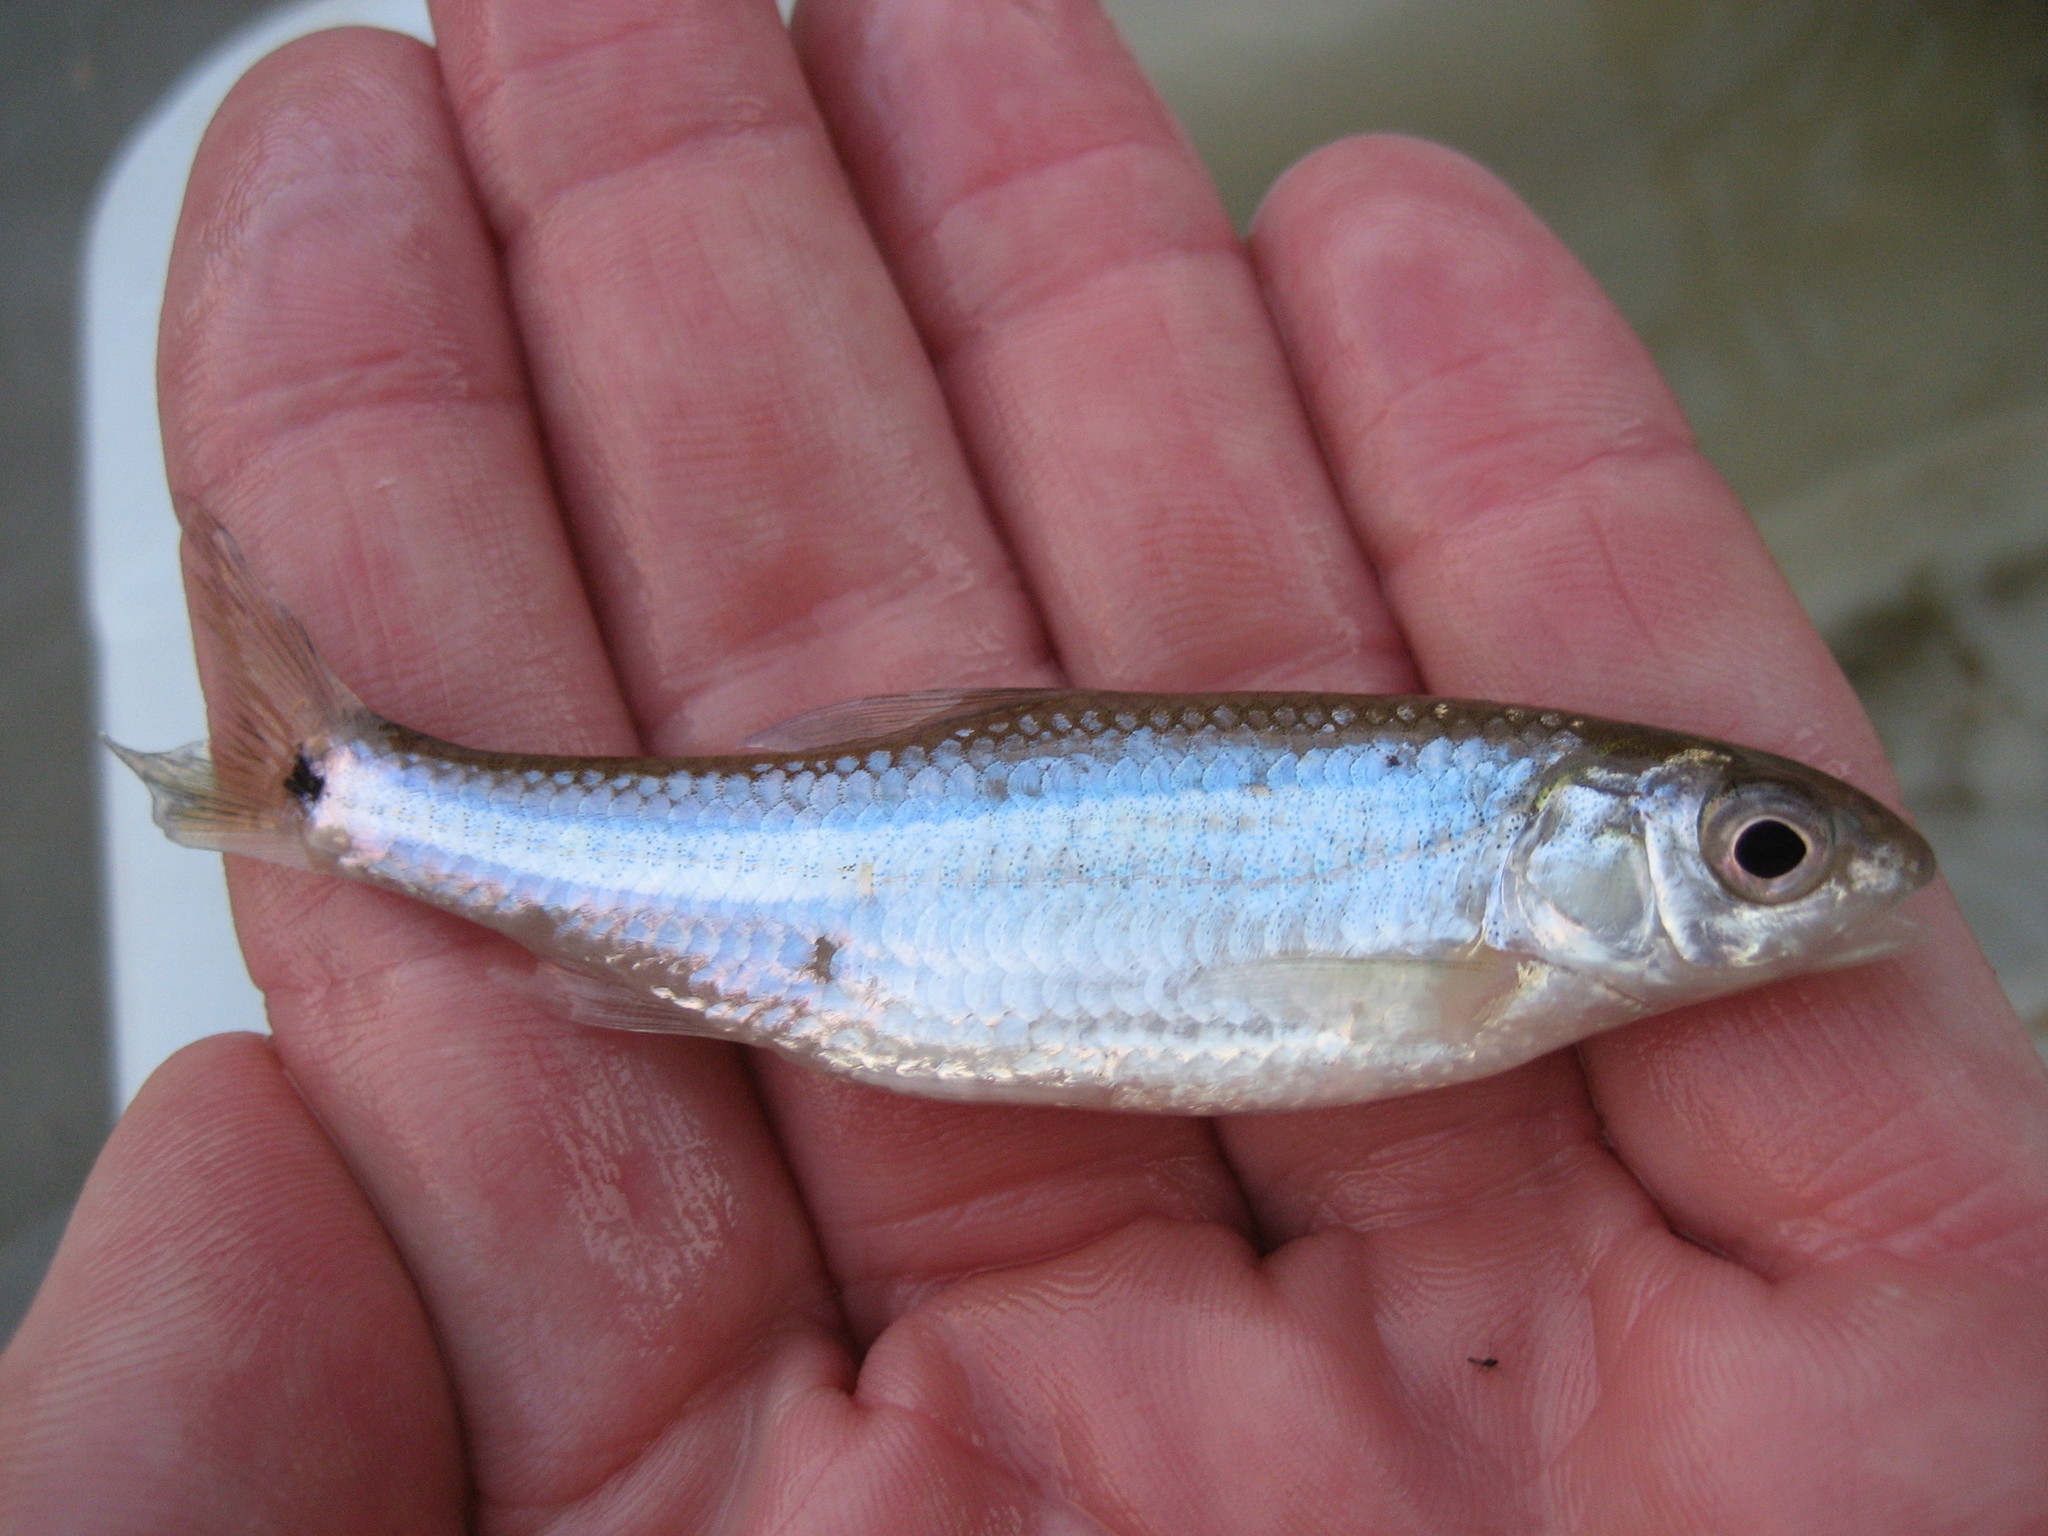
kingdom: Animalia
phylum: Chordata
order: Cypriniformes
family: Cyprinidae
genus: Notropis
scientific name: Notropis
